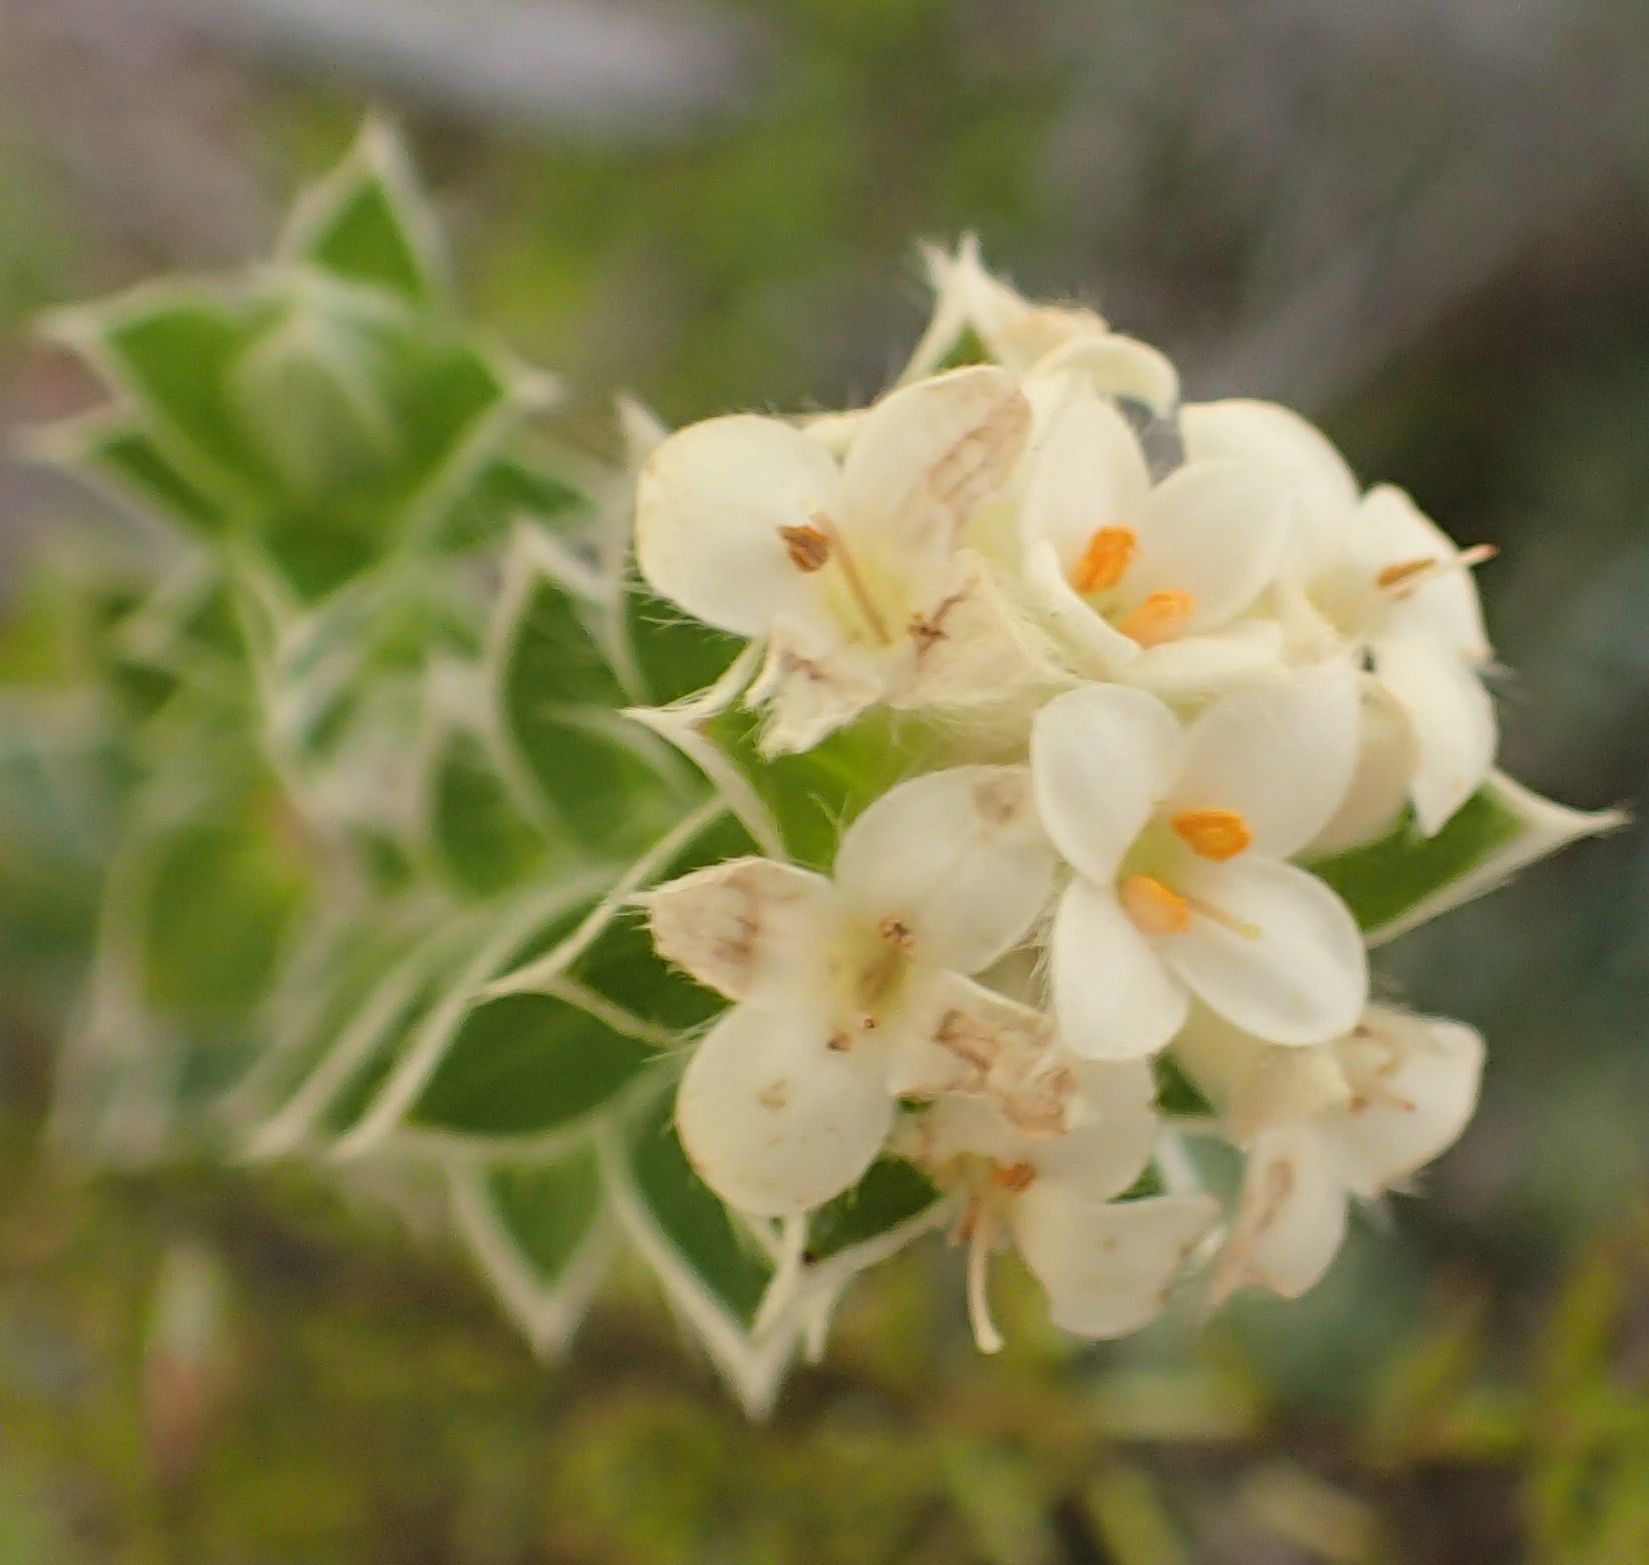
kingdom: Plantae
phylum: Tracheophyta
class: Magnoliopsida
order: Malvales
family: Thymelaeaceae
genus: Pimelea
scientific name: Pimelea pseudolyallii
